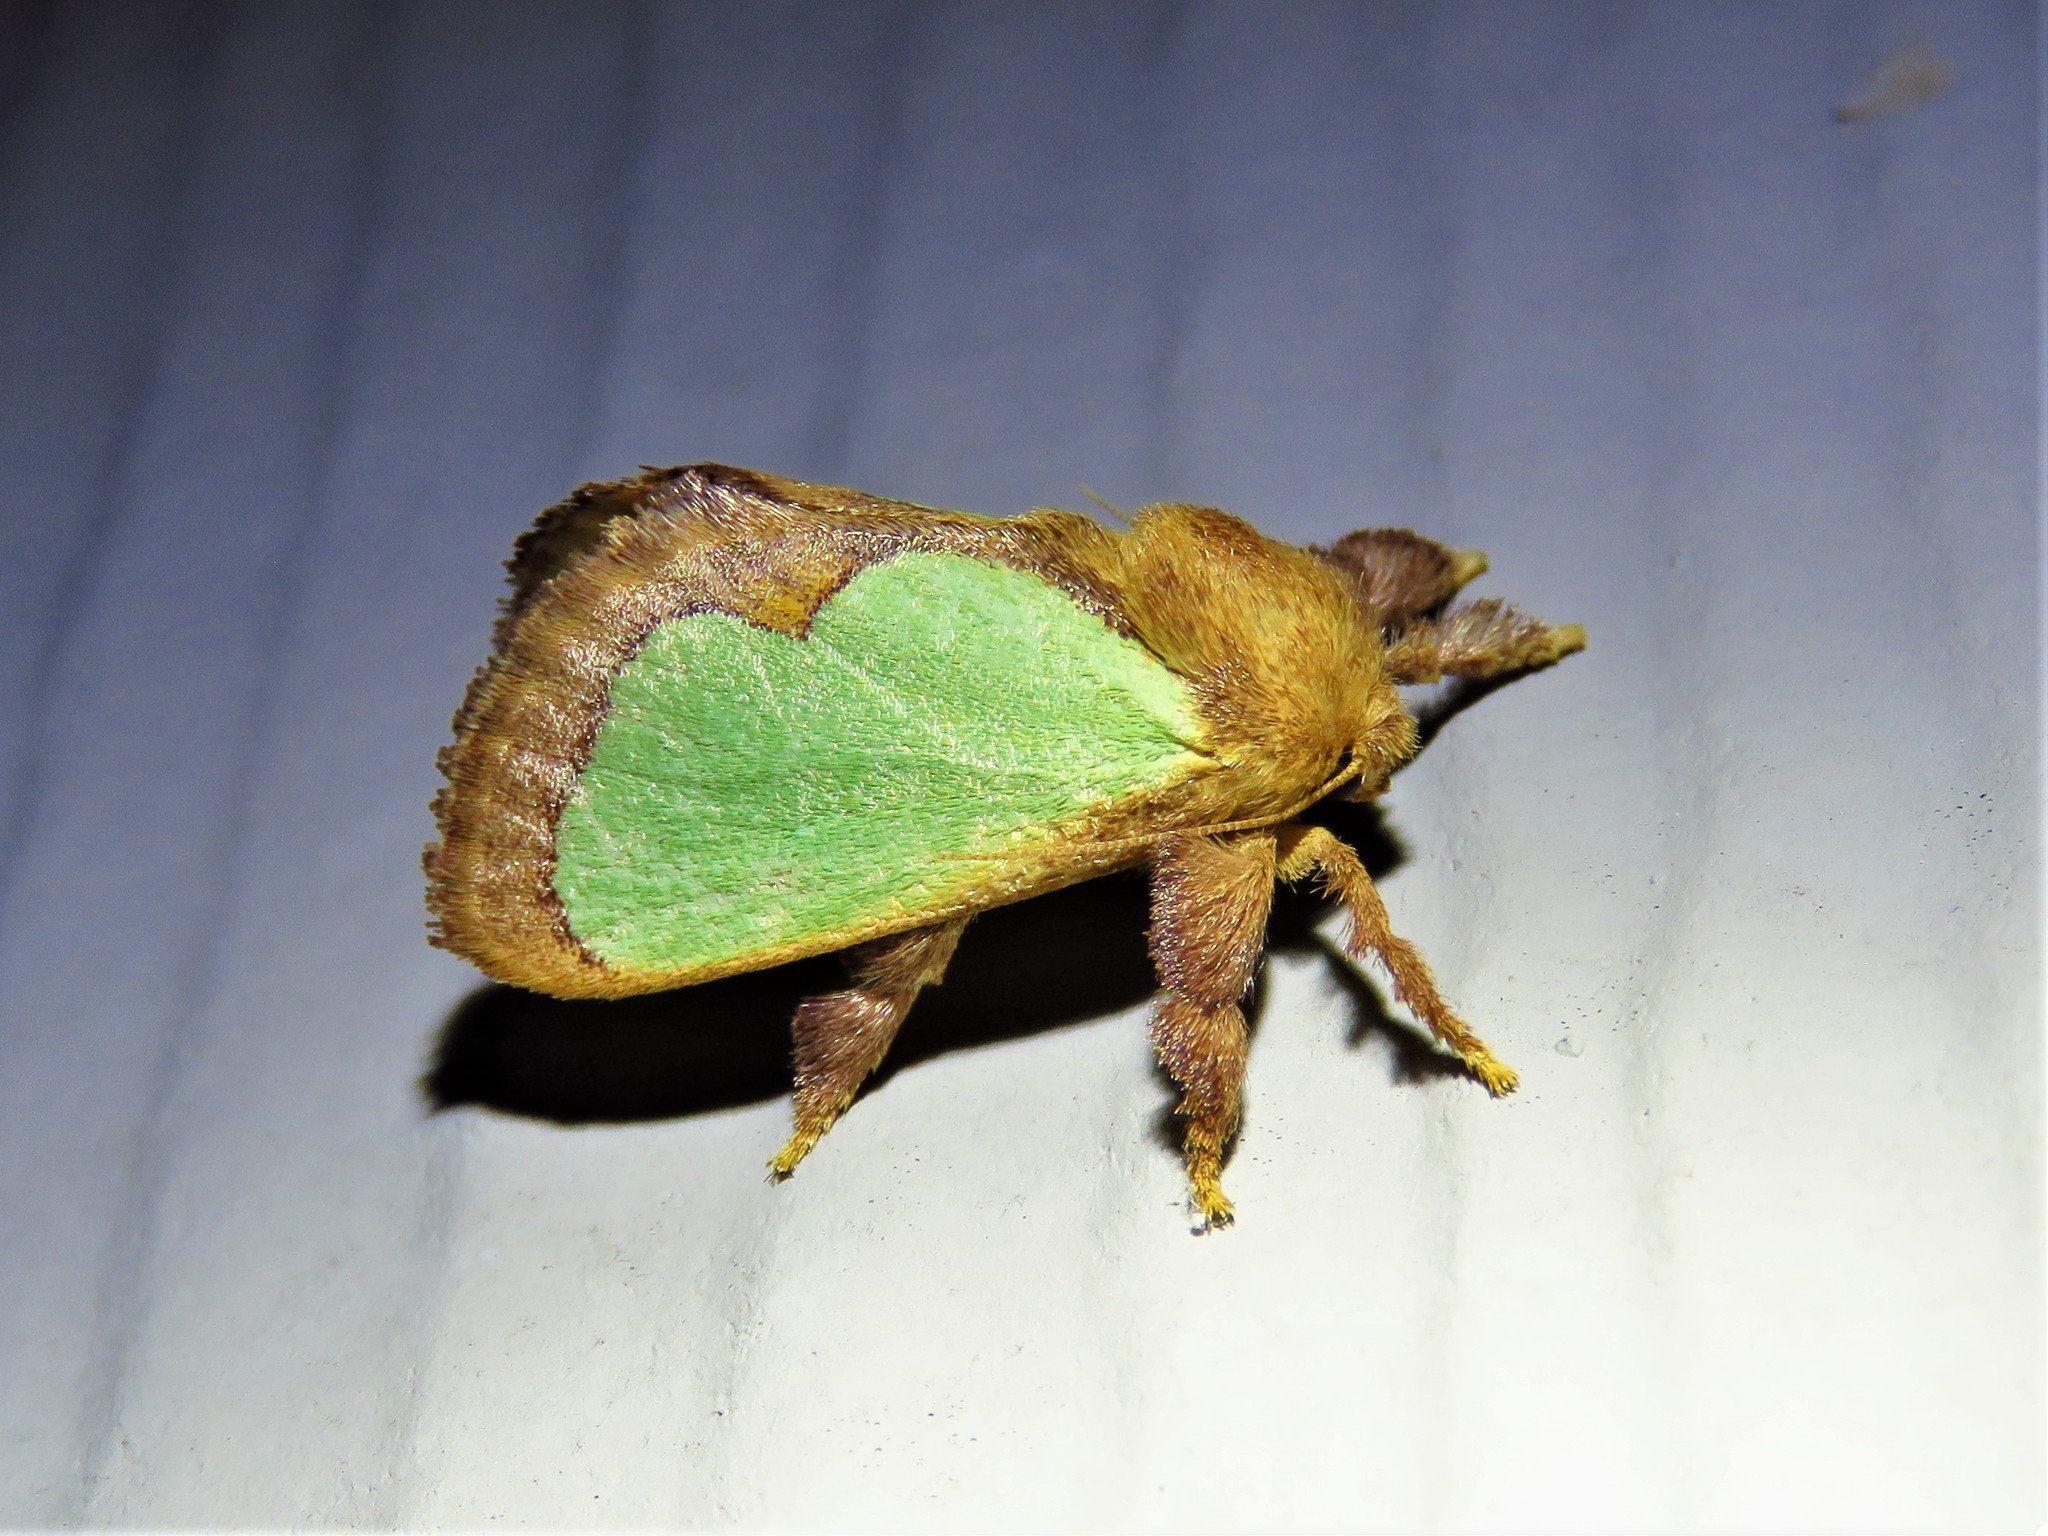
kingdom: Animalia
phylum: Arthropoda
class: Insecta
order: Lepidoptera
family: Limacodidae
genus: Euclea
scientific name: Euclea incisa
